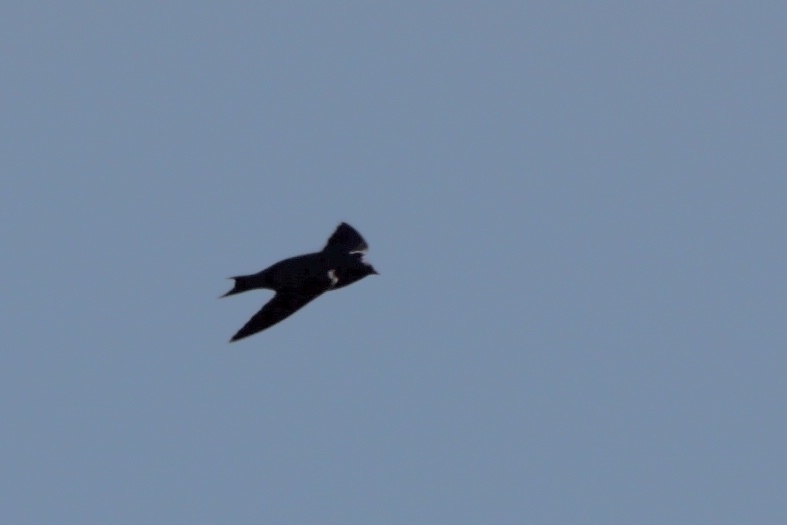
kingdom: Animalia
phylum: Chordata
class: Aves
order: Passeriformes
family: Hirundinidae
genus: Progne
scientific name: Progne subis
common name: Purple martin
